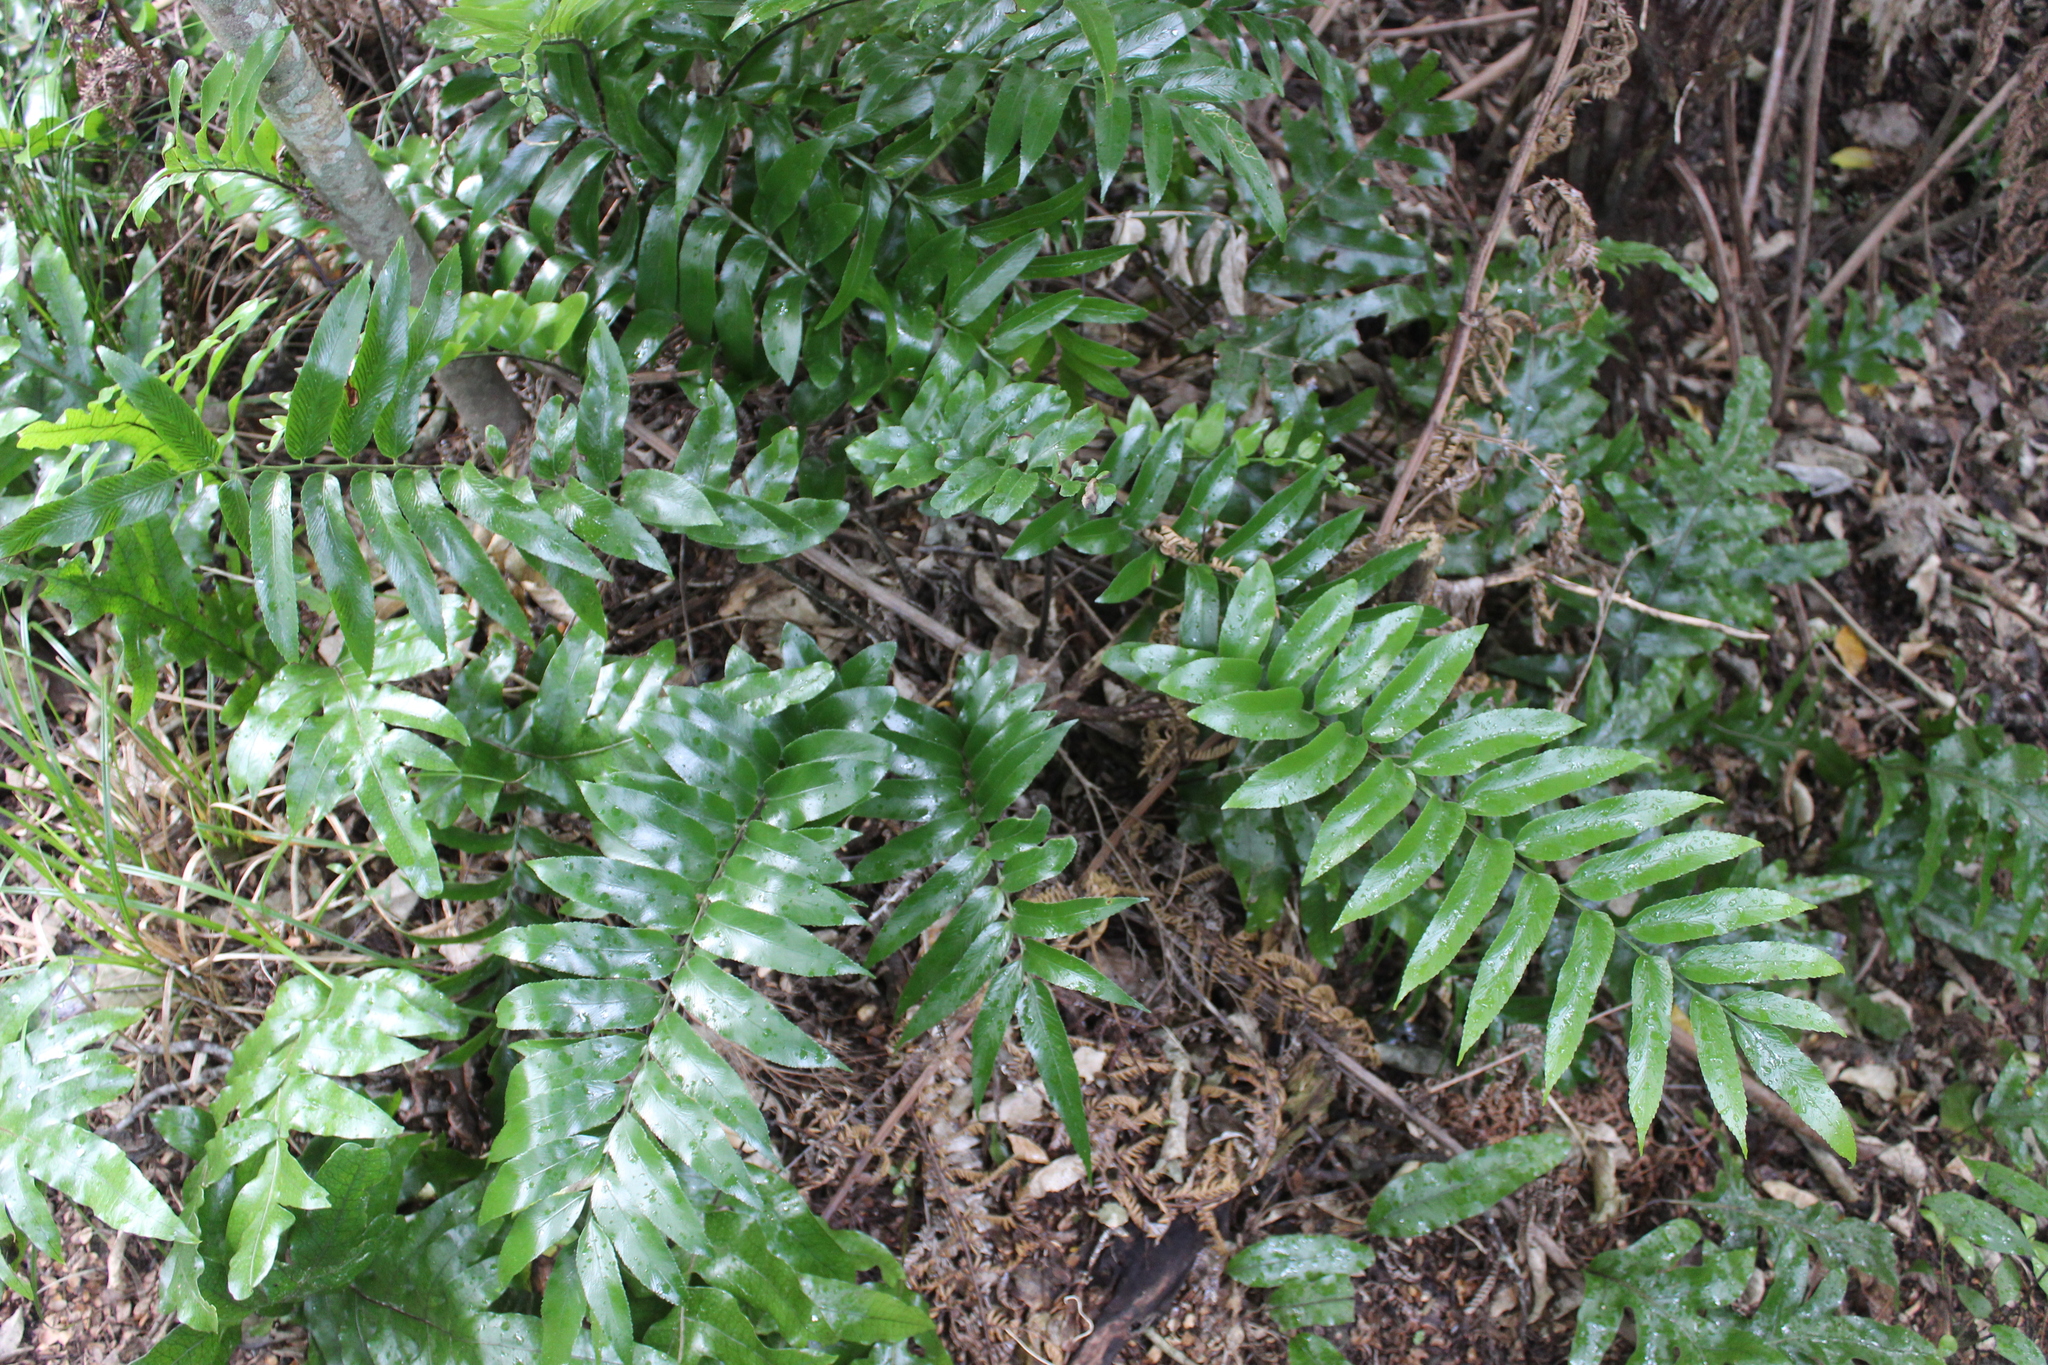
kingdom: Plantae
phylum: Tracheophyta
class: Polypodiopsida
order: Polypodiales
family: Aspleniaceae
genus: Asplenium
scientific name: Asplenium oblongifolium
